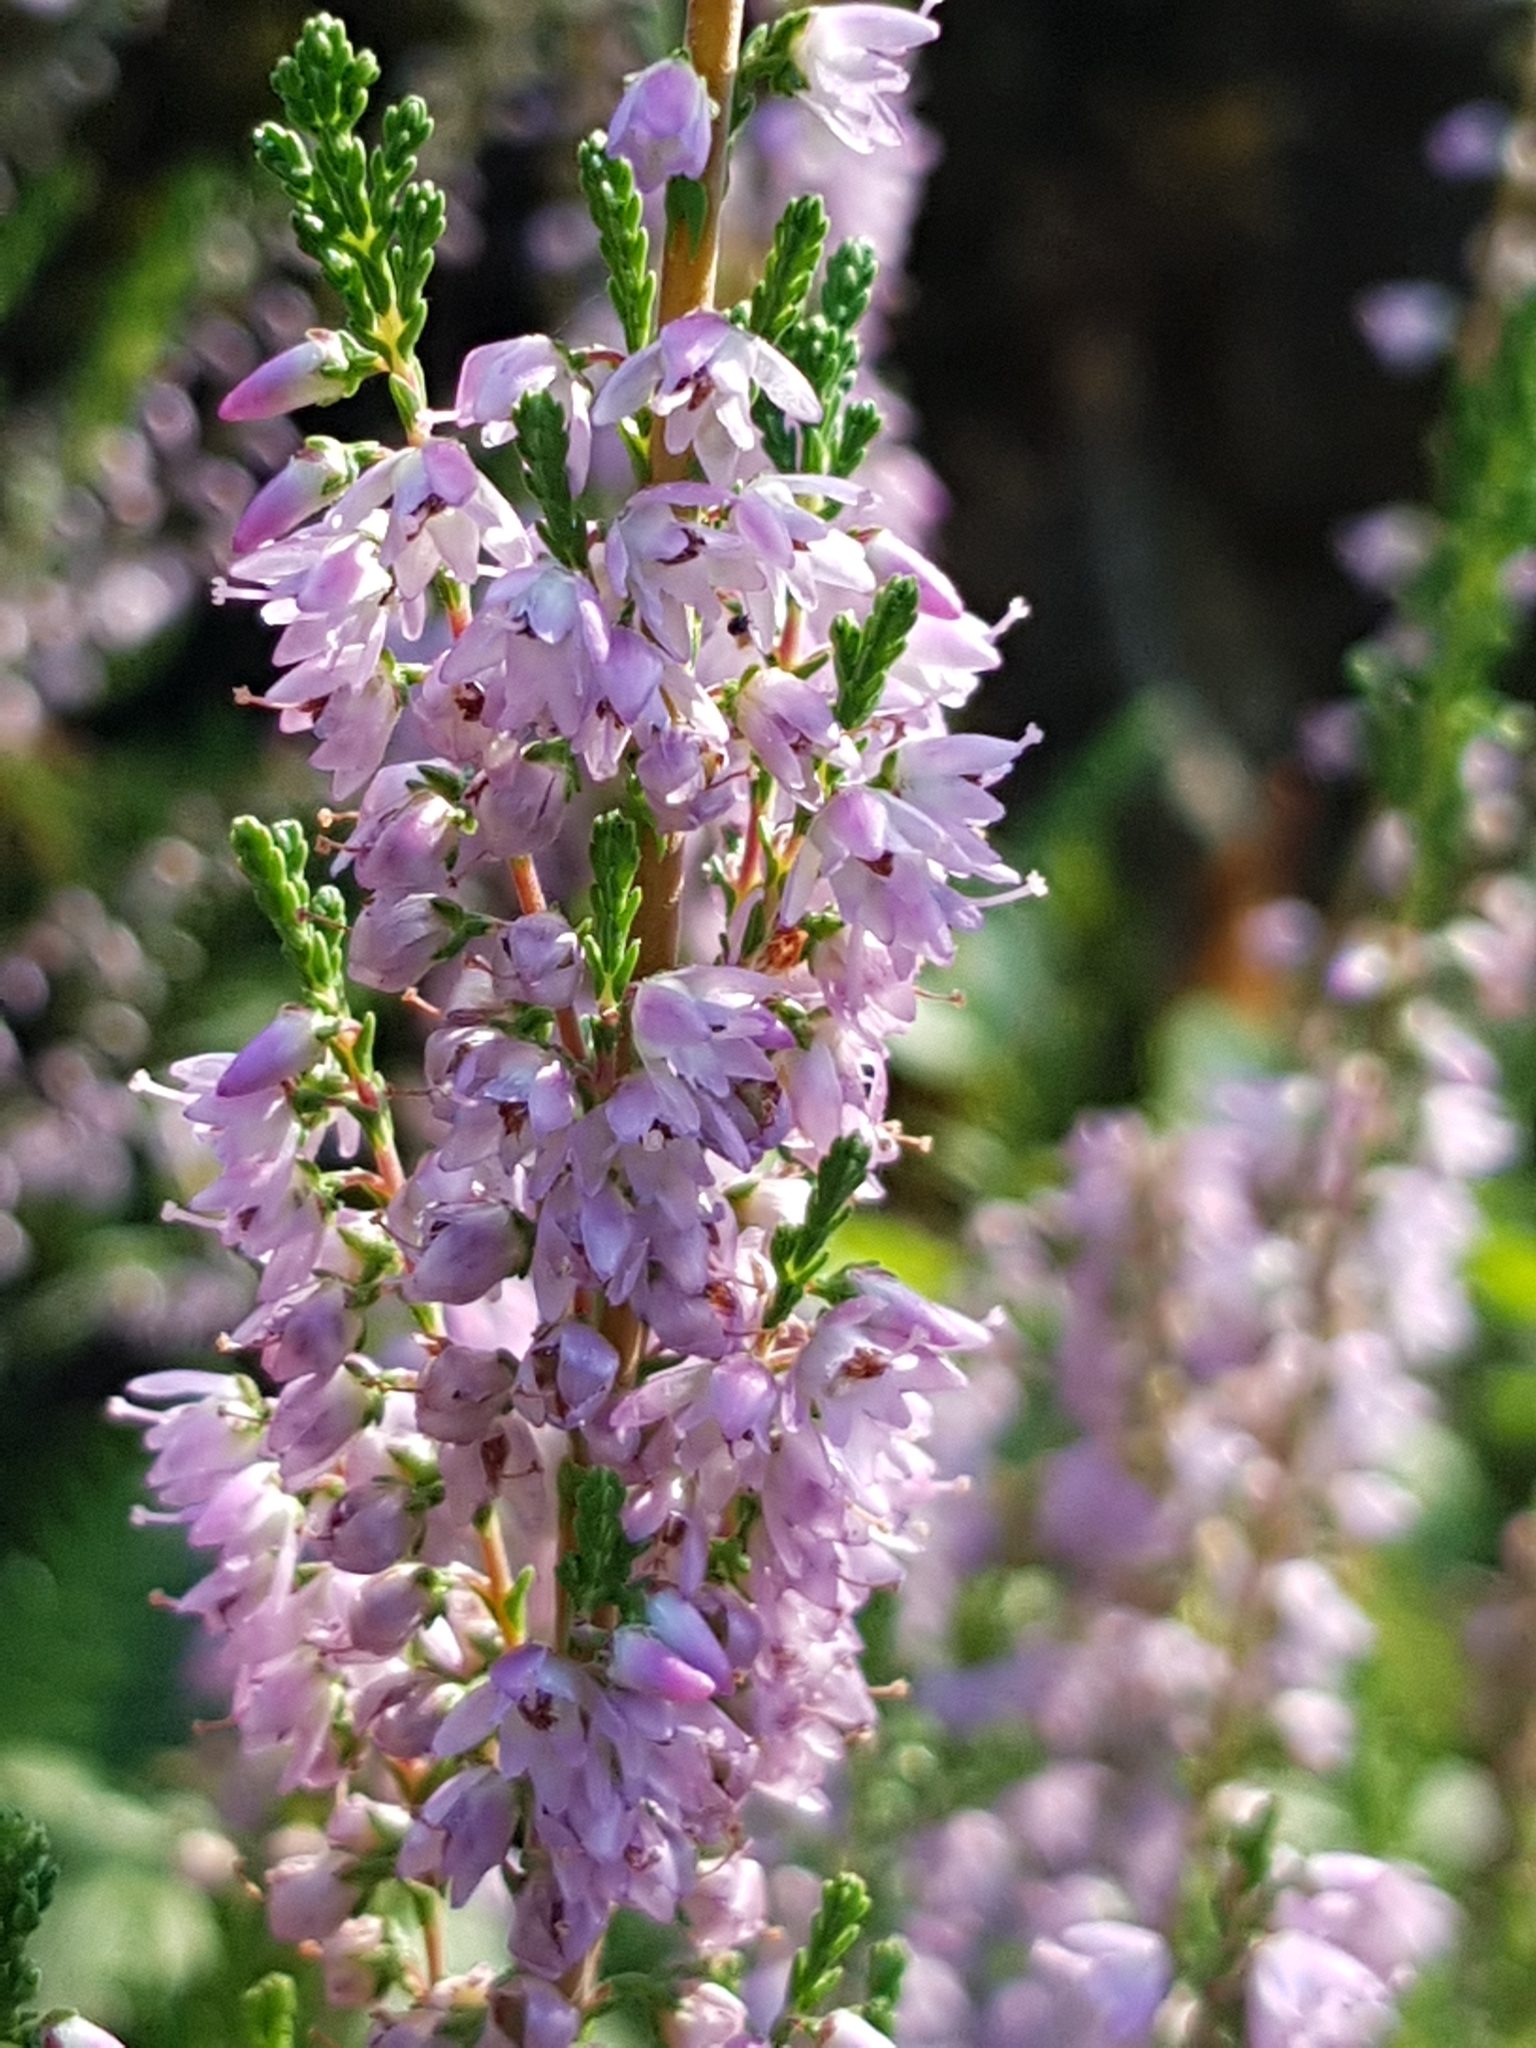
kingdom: Plantae
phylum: Tracheophyta
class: Magnoliopsida
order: Ericales
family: Ericaceae
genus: Calluna
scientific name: Calluna vulgaris
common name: Heather
